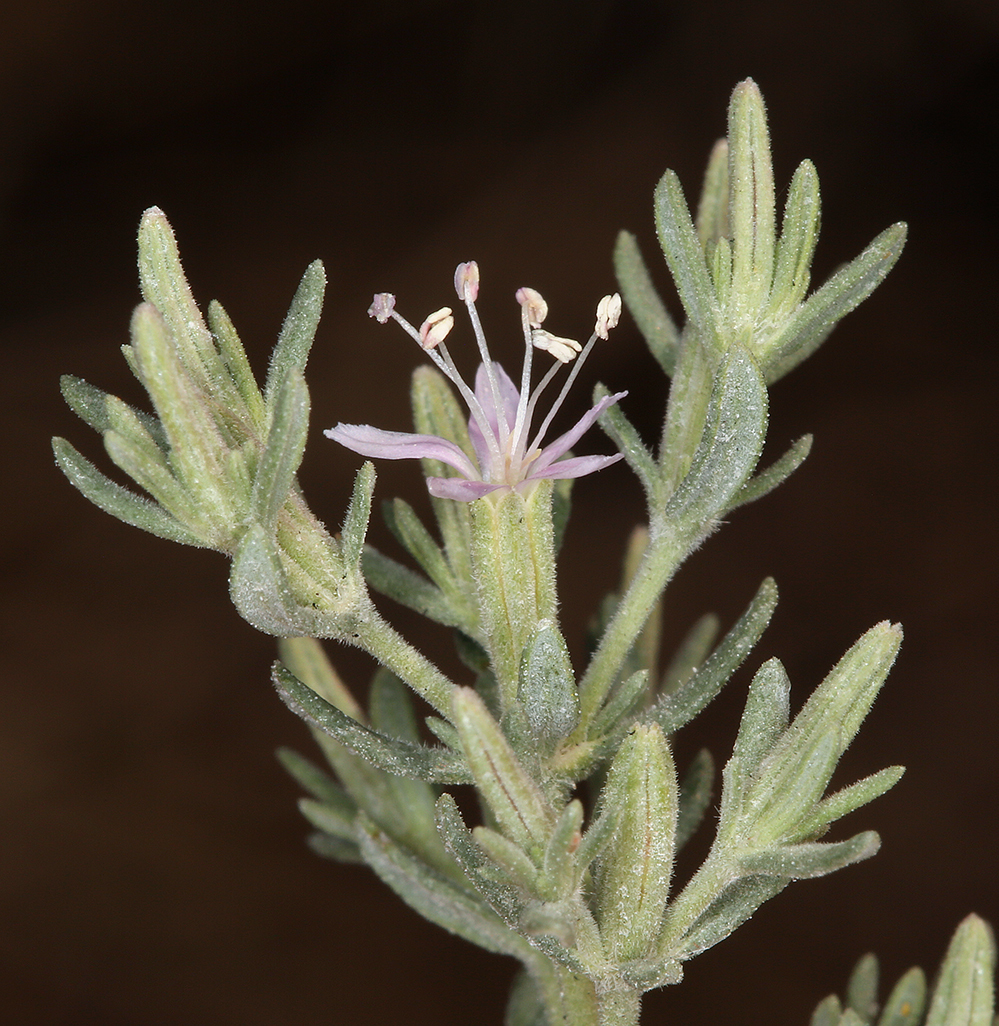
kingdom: Plantae
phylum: Tracheophyta
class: Magnoliopsida
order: Caryophyllales
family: Frankeniaceae
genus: Frankenia
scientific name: Frankenia salina
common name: Alkali seaheath
